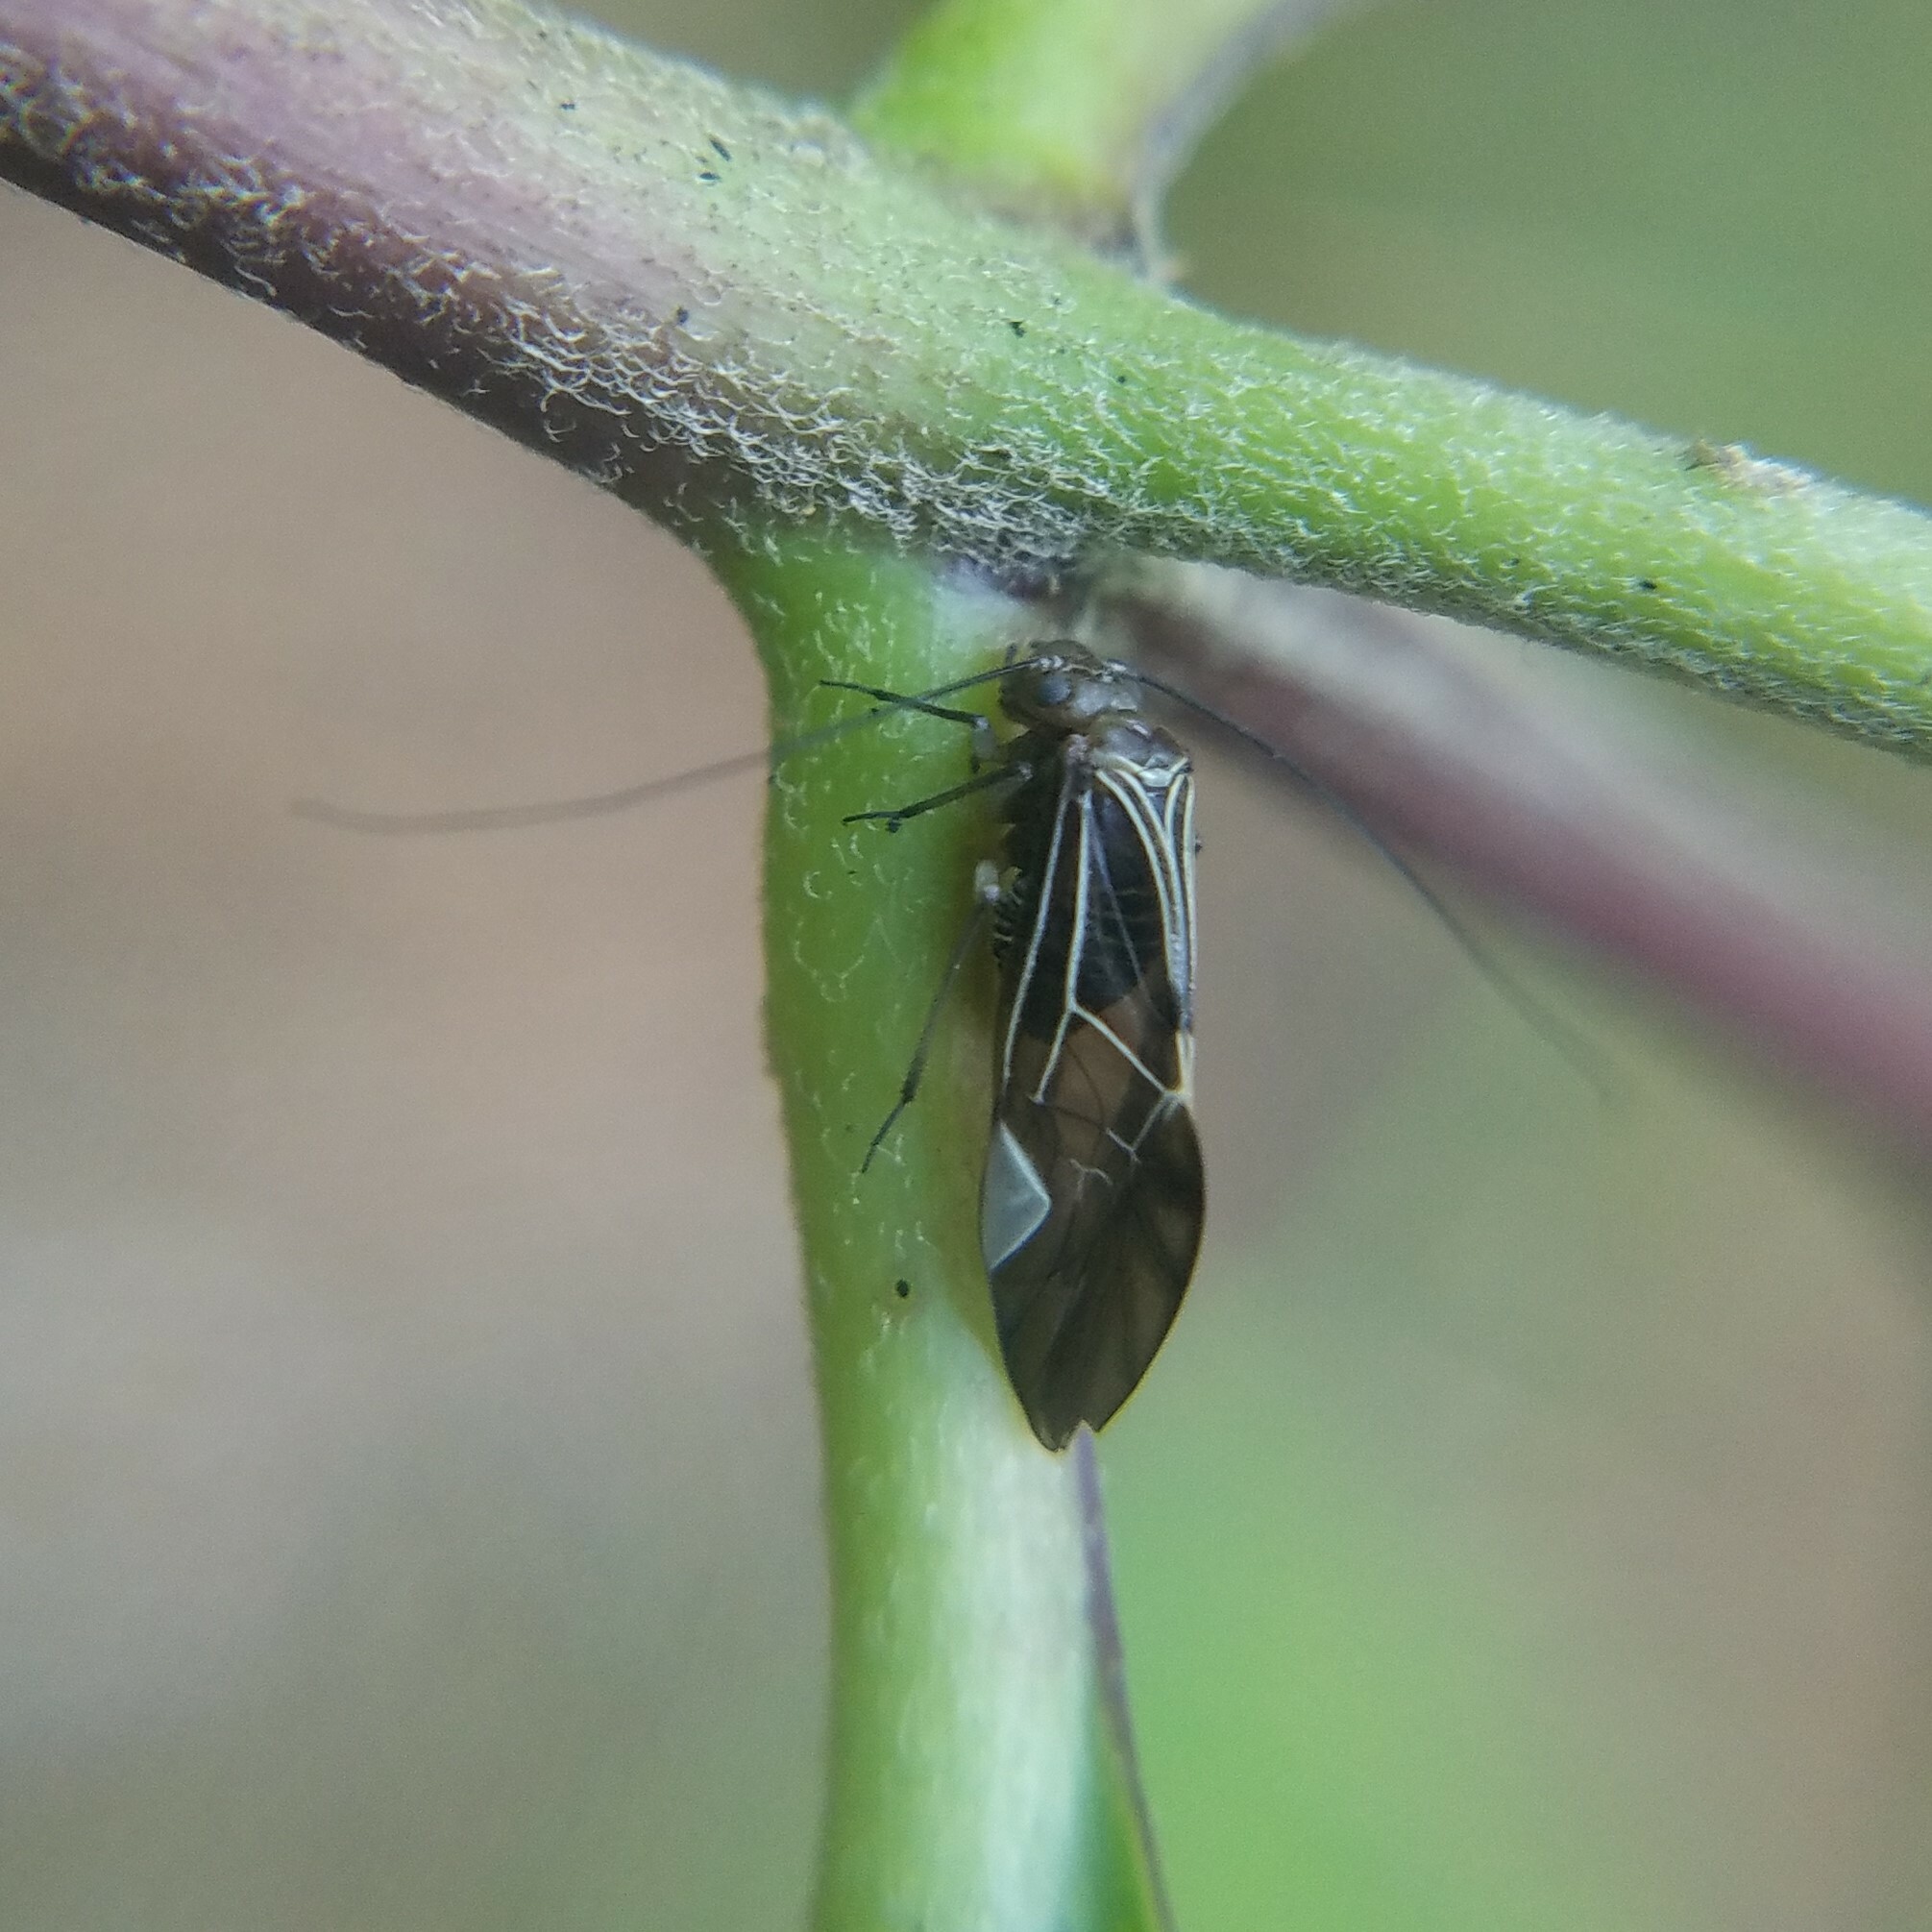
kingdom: Animalia
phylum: Arthropoda
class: Insecta
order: Psocodea
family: Psocidae
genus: Cerastipsocus
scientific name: Cerastipsocus venosus
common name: Tree cattle
